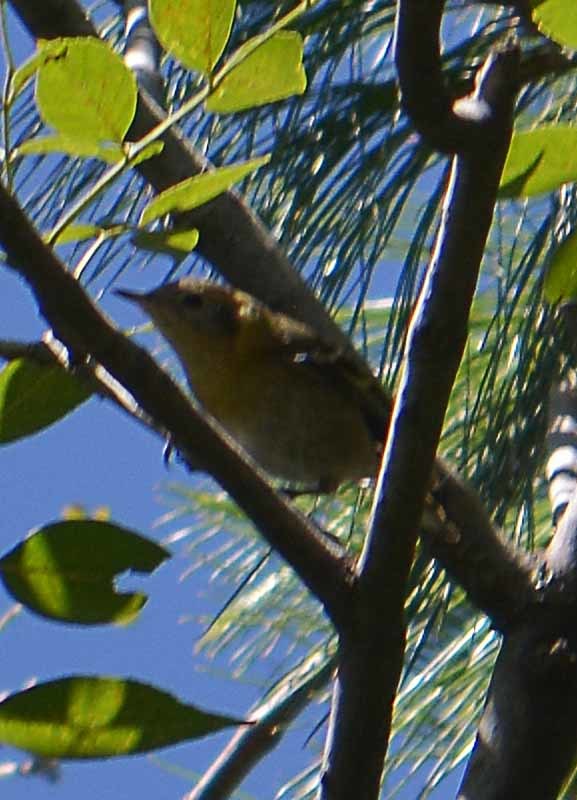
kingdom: Animalia
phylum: Chordata
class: Aves
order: Passeriformes
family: Peucedramidae
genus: Peucedramus
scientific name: Peucedramus taeniatus
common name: Olive warbler
